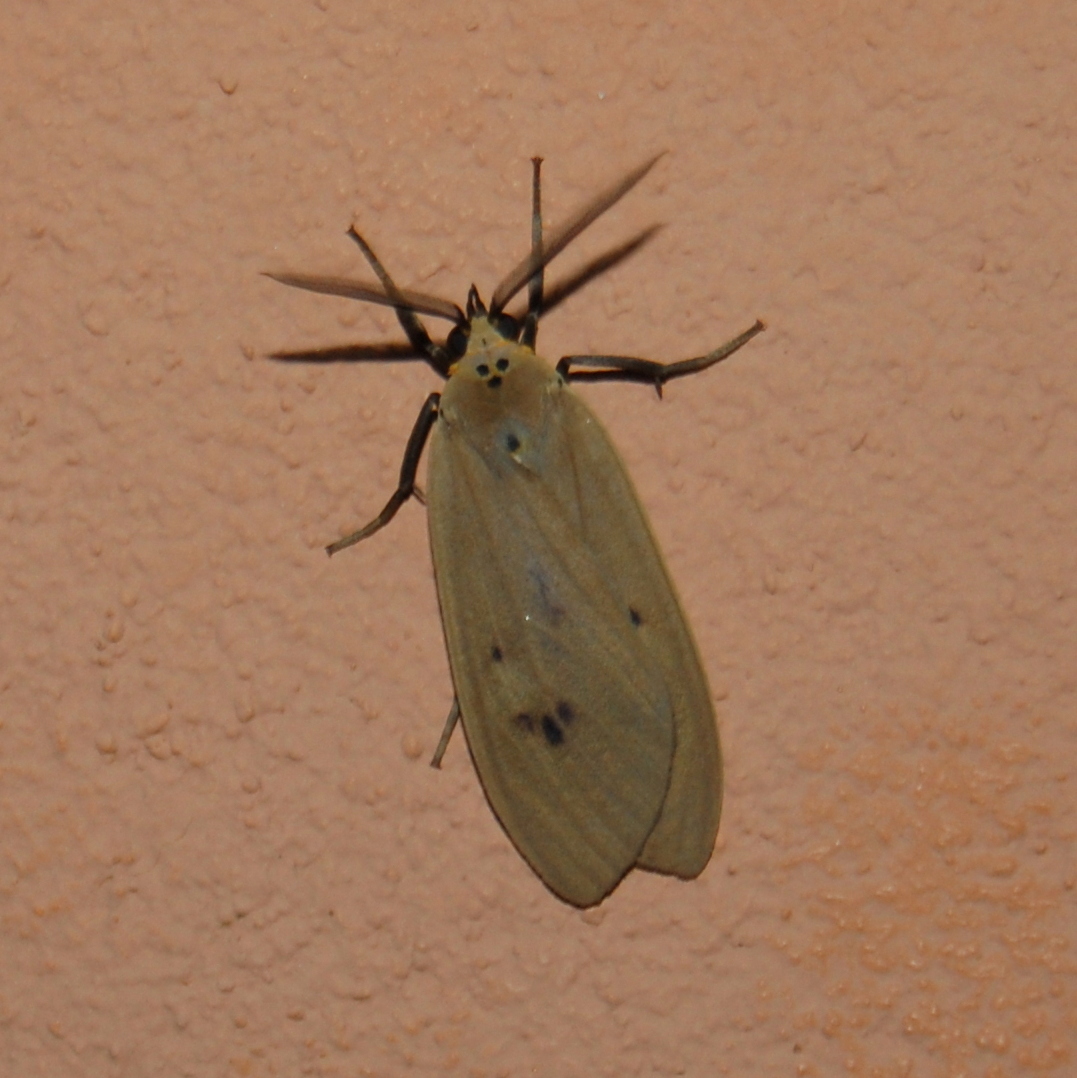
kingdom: Animalia
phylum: Arthropoda
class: Insecta
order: Lepidoptera
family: Erebidae
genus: Opharus
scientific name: Opharus rema
